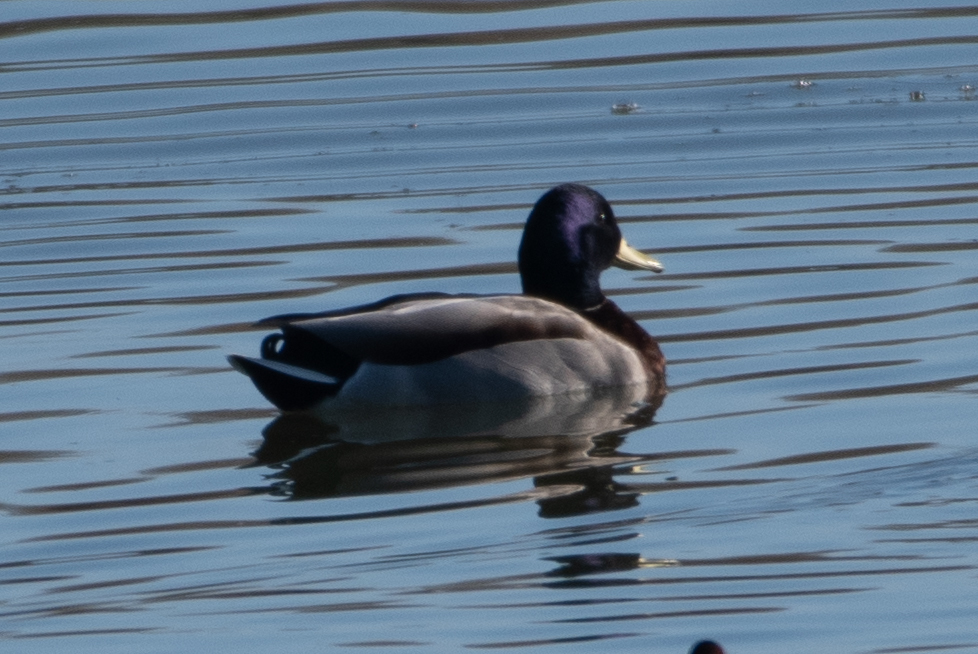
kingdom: Animalia
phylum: Chordata
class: Aves
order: Anseriformes
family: Anatidae
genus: Anas
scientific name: Anas platyrhynchos
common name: Mallard
